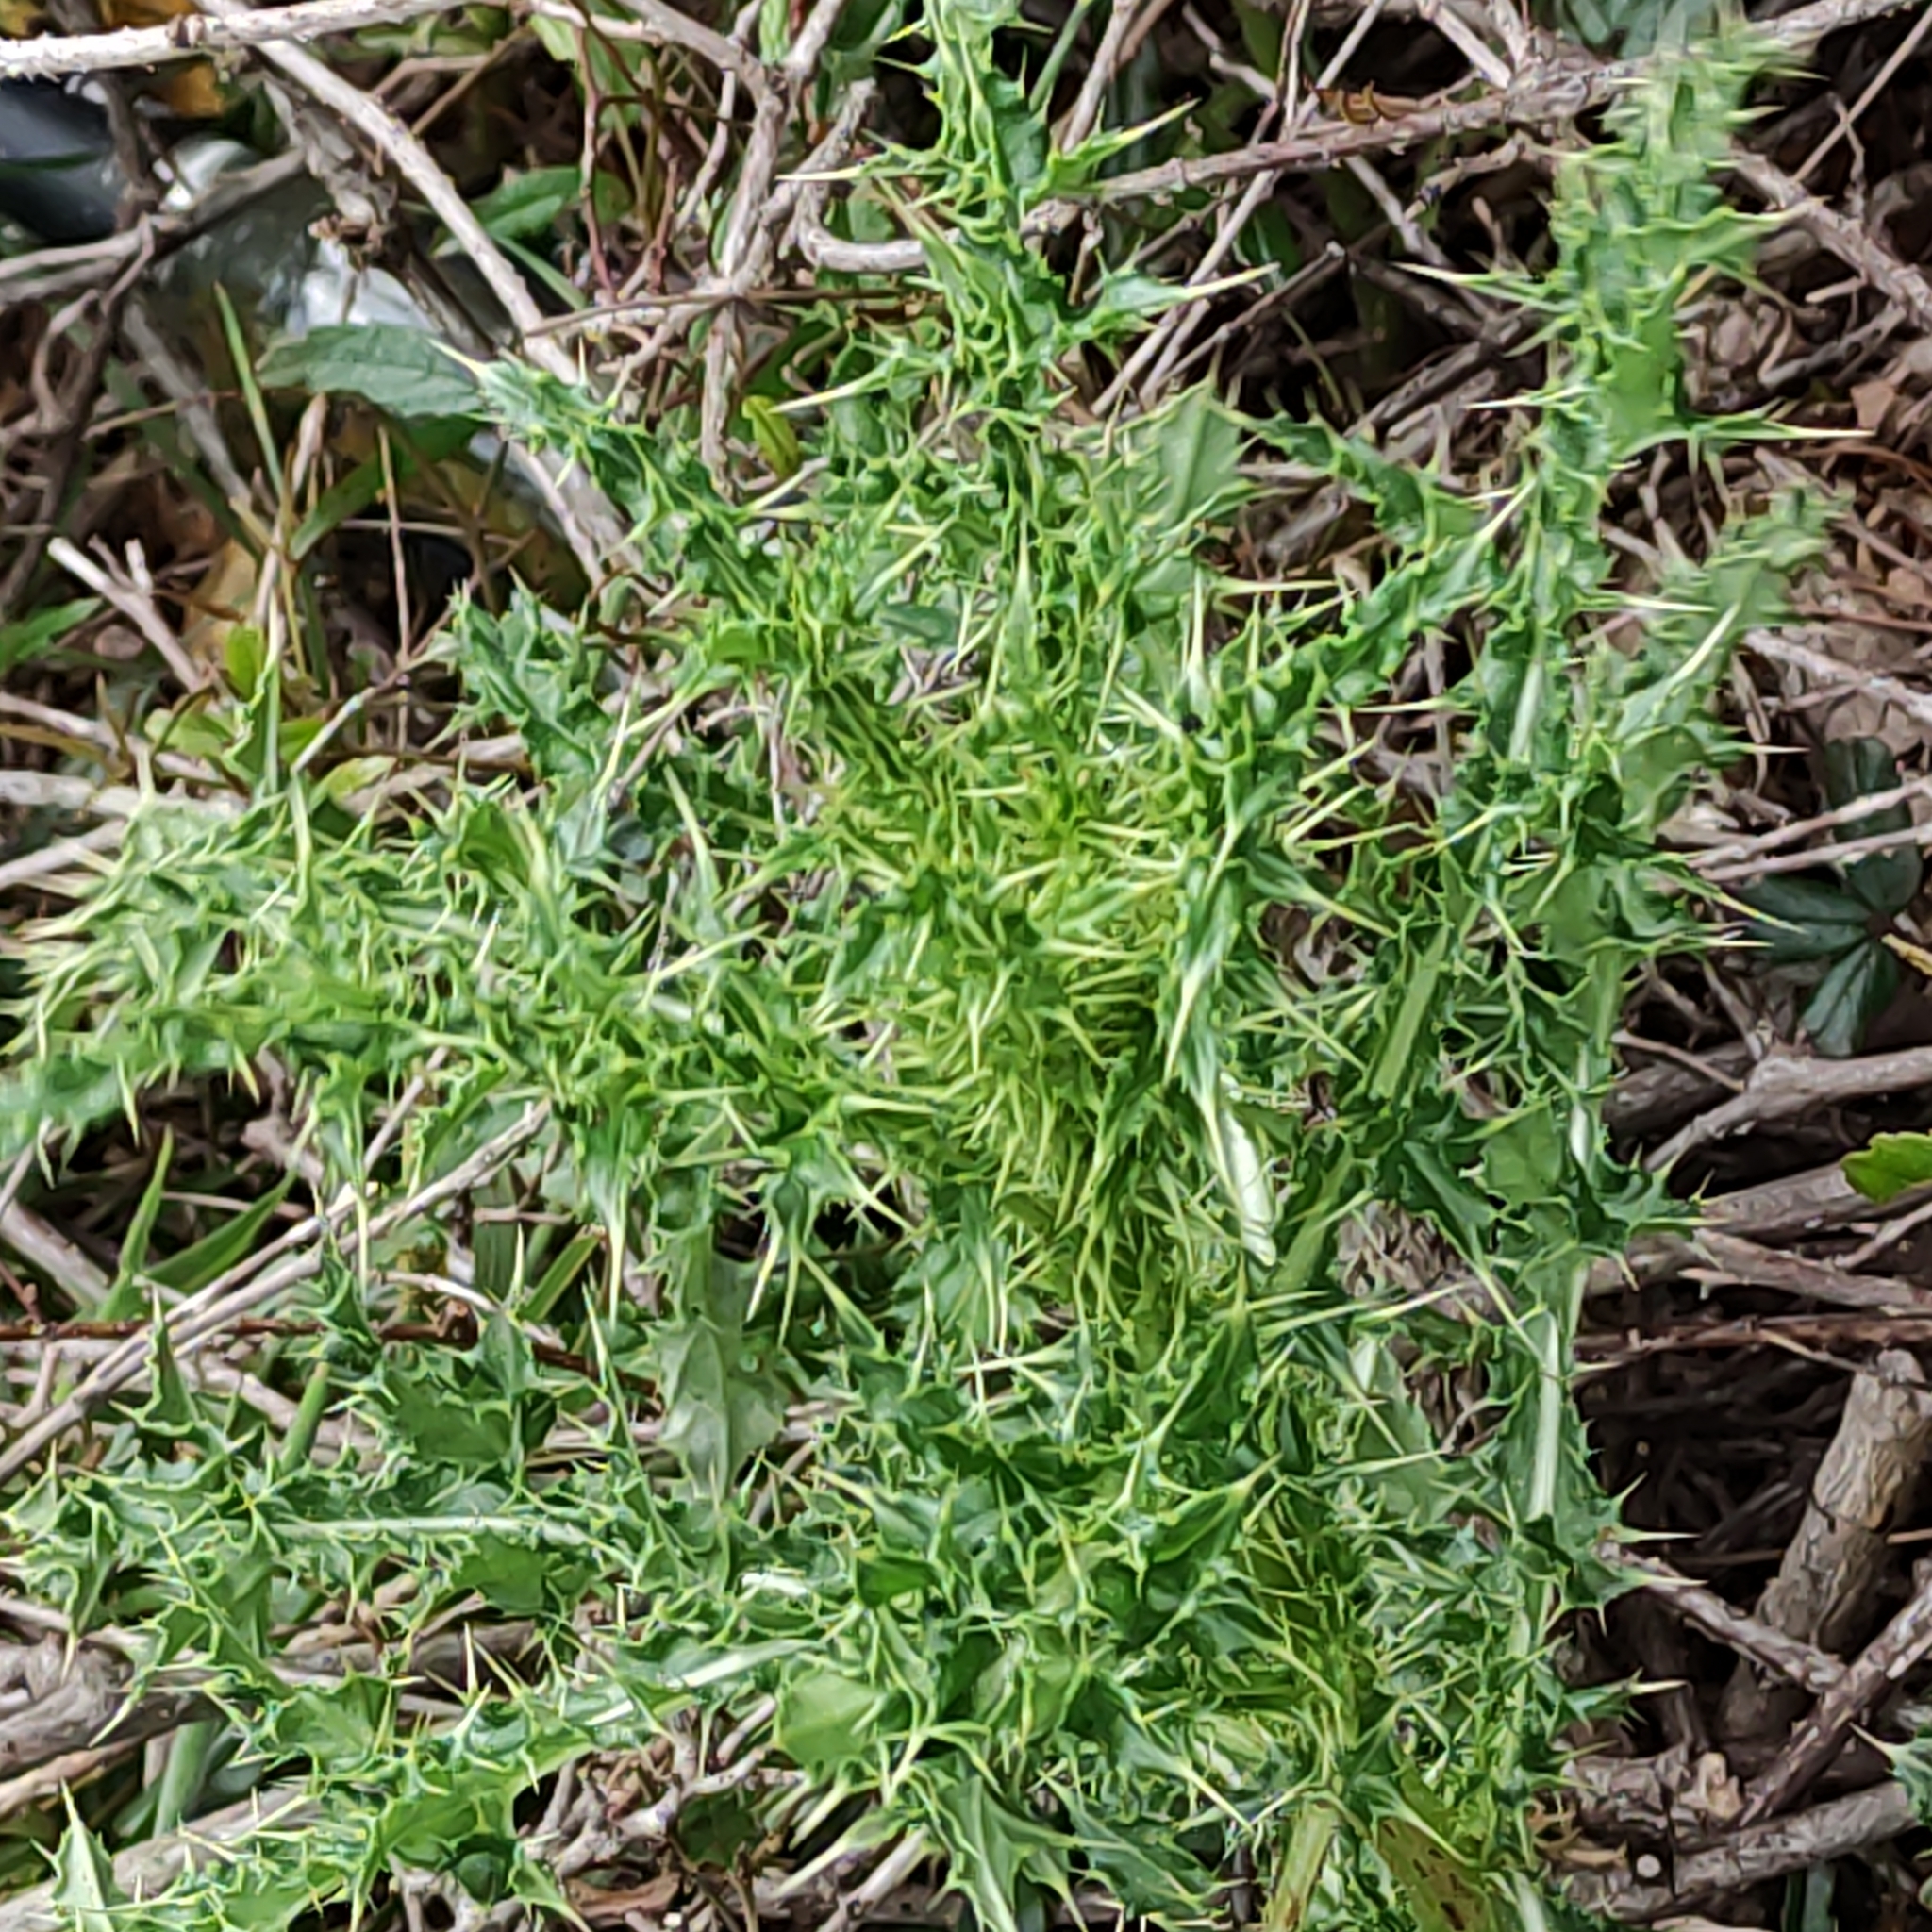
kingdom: Plantae
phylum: Tracheophyta
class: Magnoliopsida
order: Asterales
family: Asteraceae
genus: Cirsium
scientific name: Cirsium arvense
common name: Creeping thistle
